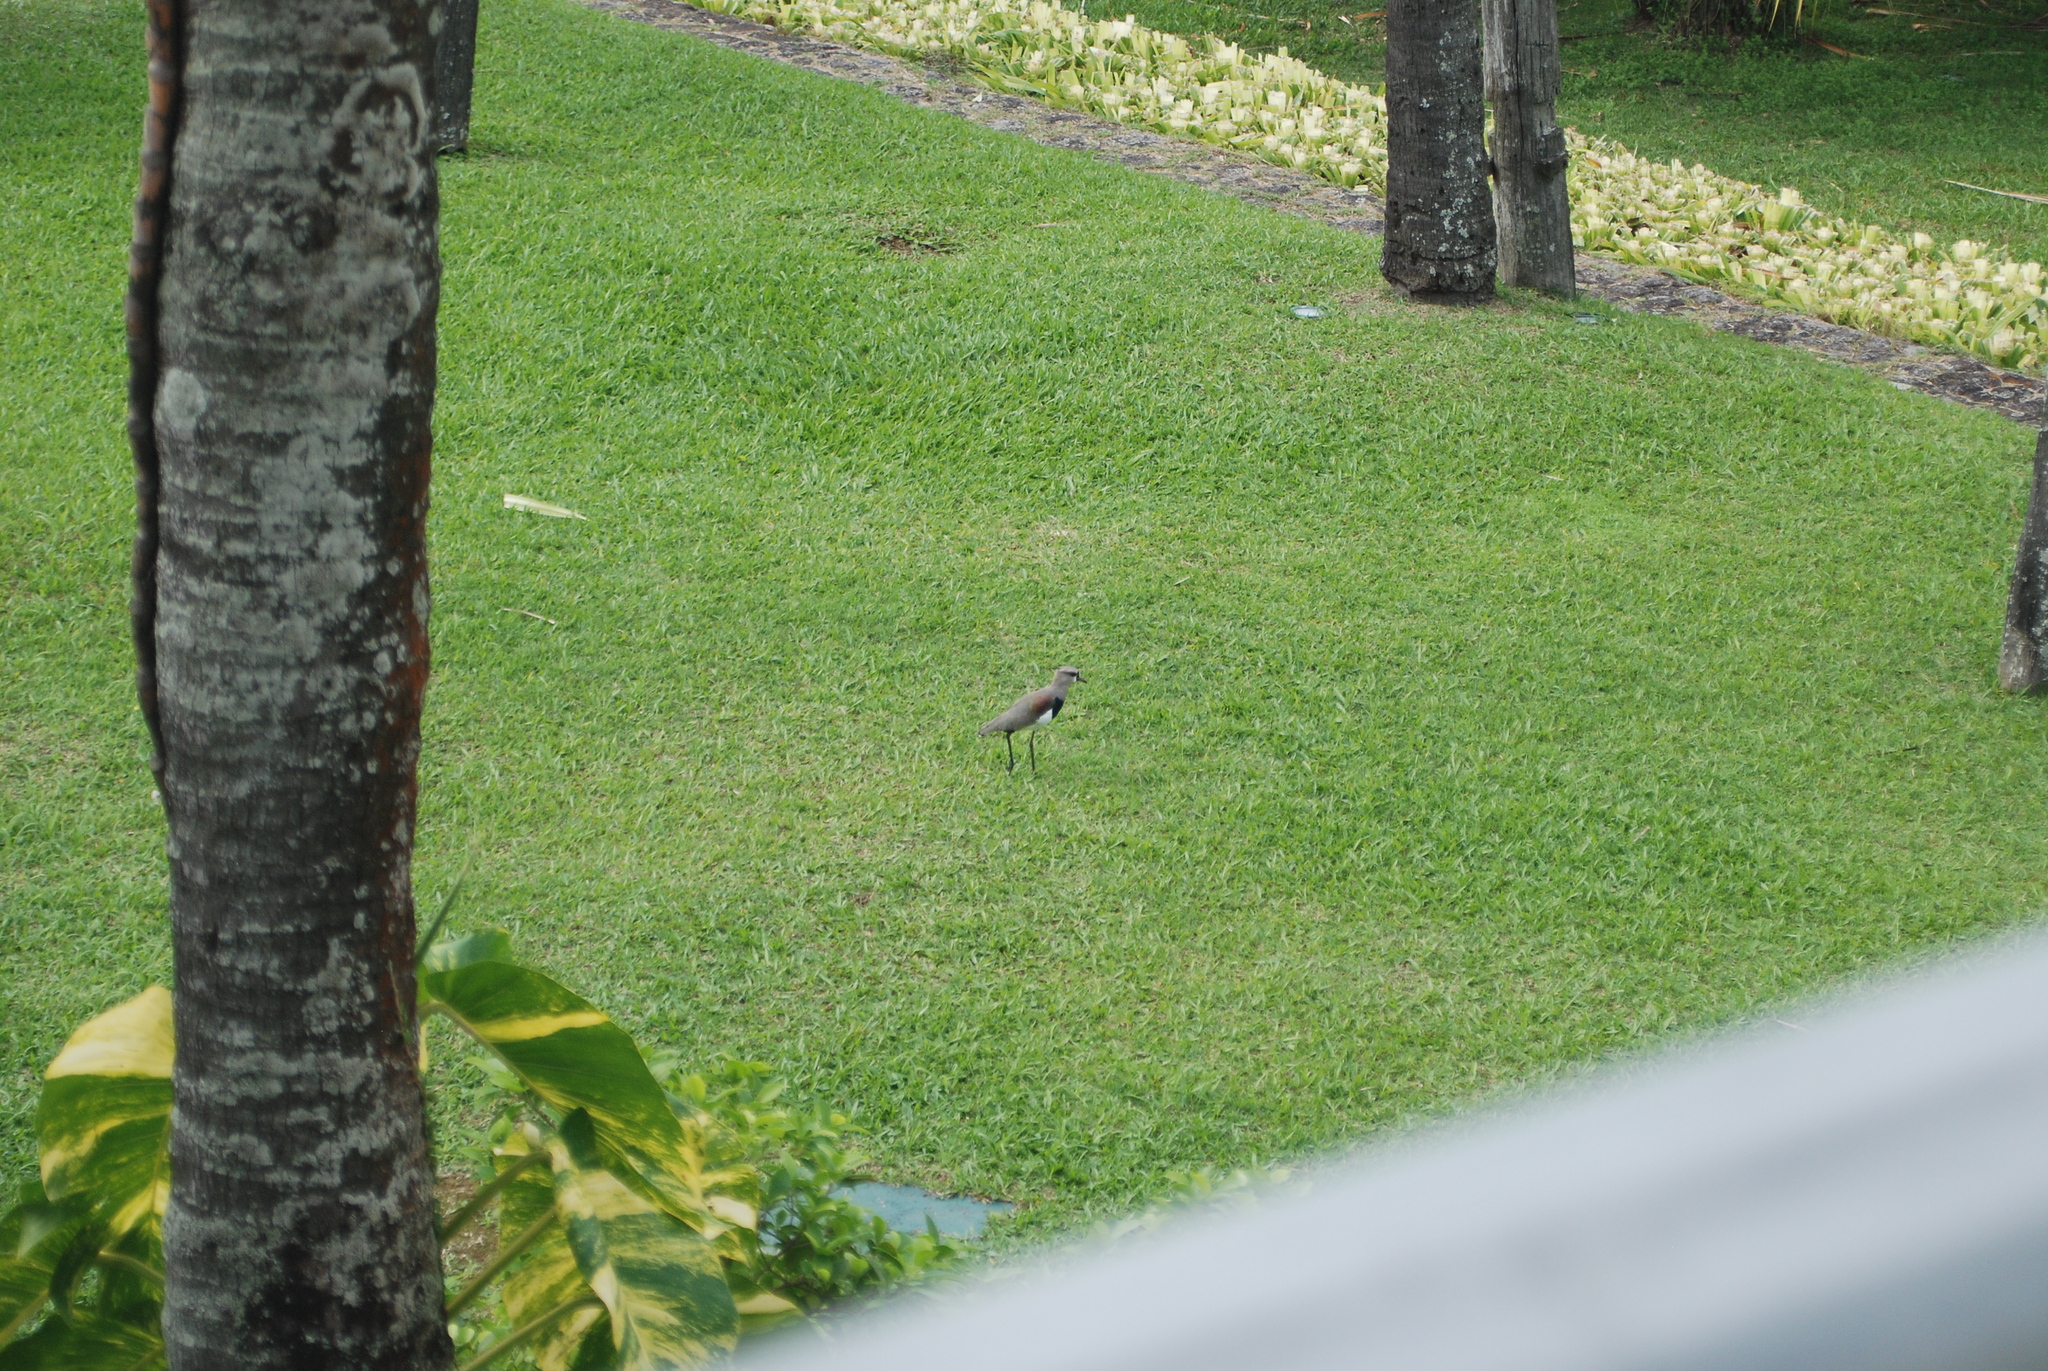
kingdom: Animalia
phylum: Chordata
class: Aves
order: Charadriiformes
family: Charadriidae
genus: Vanellus
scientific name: Vanellus chilensis
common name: Southern lapwing
